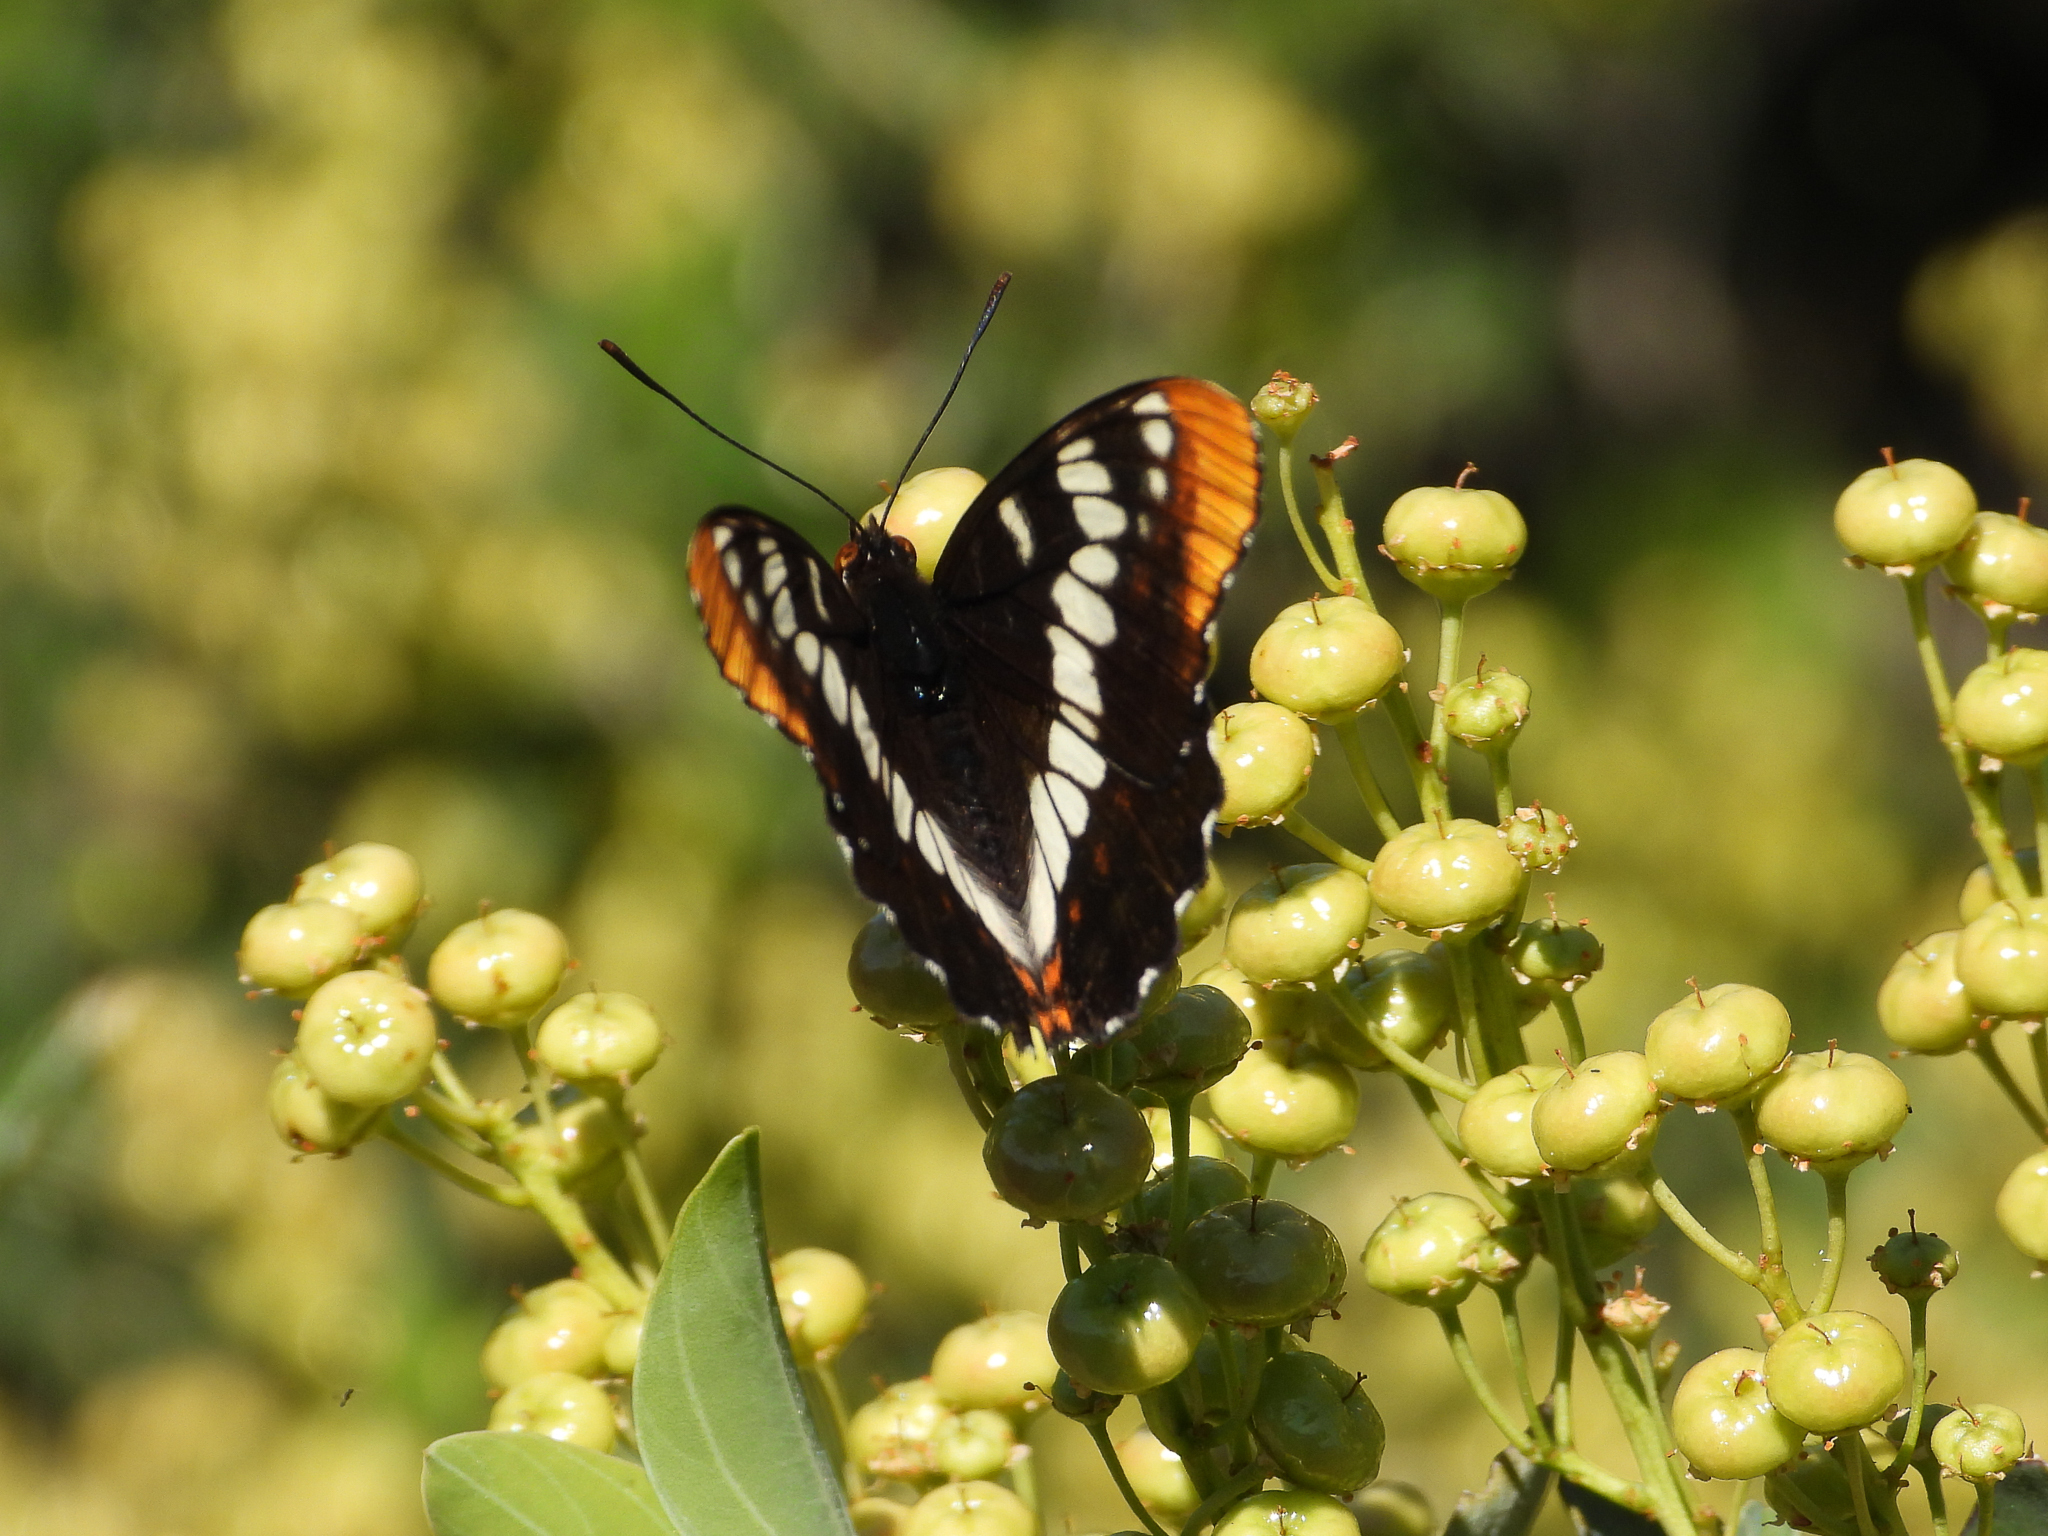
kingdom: Animalia
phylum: Arthropoda
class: Insecta
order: Lepidoptera
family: Nymphalidae
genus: Limenitis
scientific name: Limenitis lorquini
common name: Lorquin's admiral
